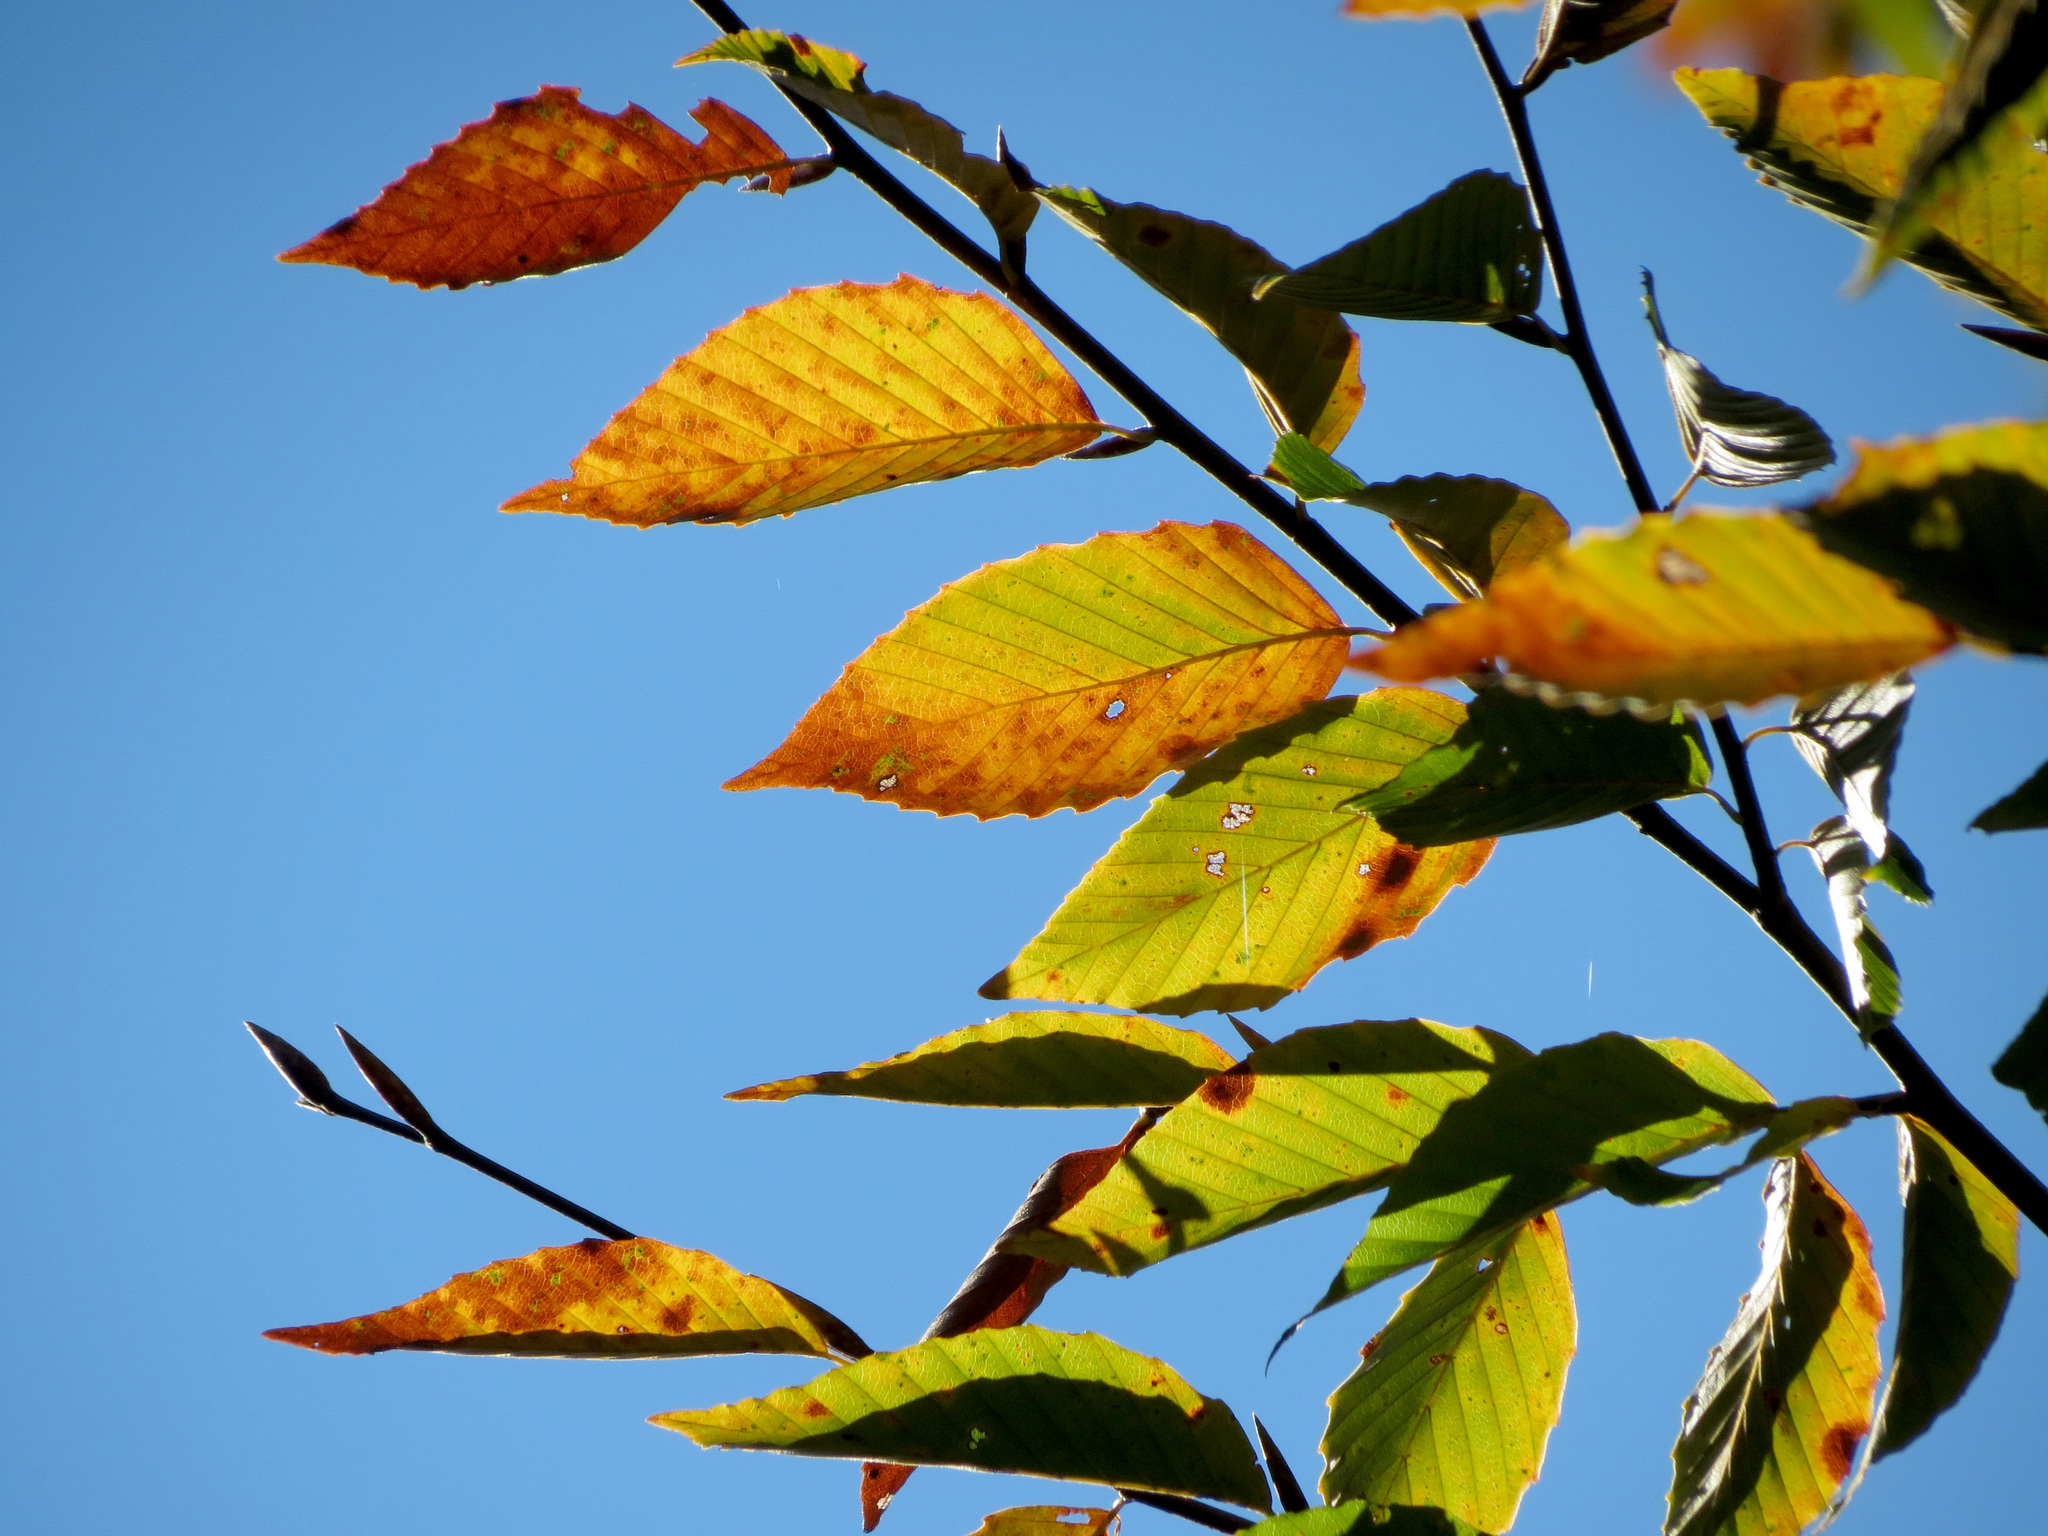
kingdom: Plantae
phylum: Tracheophyta
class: Magnoliopsida
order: Fagales
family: Fagaceae
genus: Fagus
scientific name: Fagus grandifolia
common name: American beech
